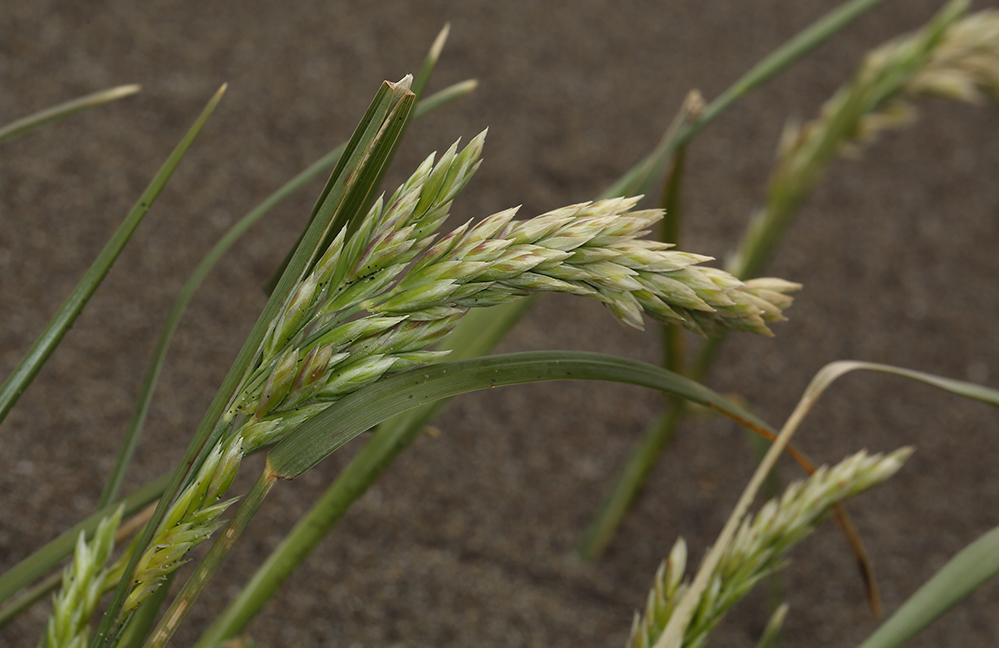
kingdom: Plantae
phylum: Tracheophyta
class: Liliopsida
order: Poales
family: Poaceae
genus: Poa
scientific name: Poa macrantha
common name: Dune bluegrass
